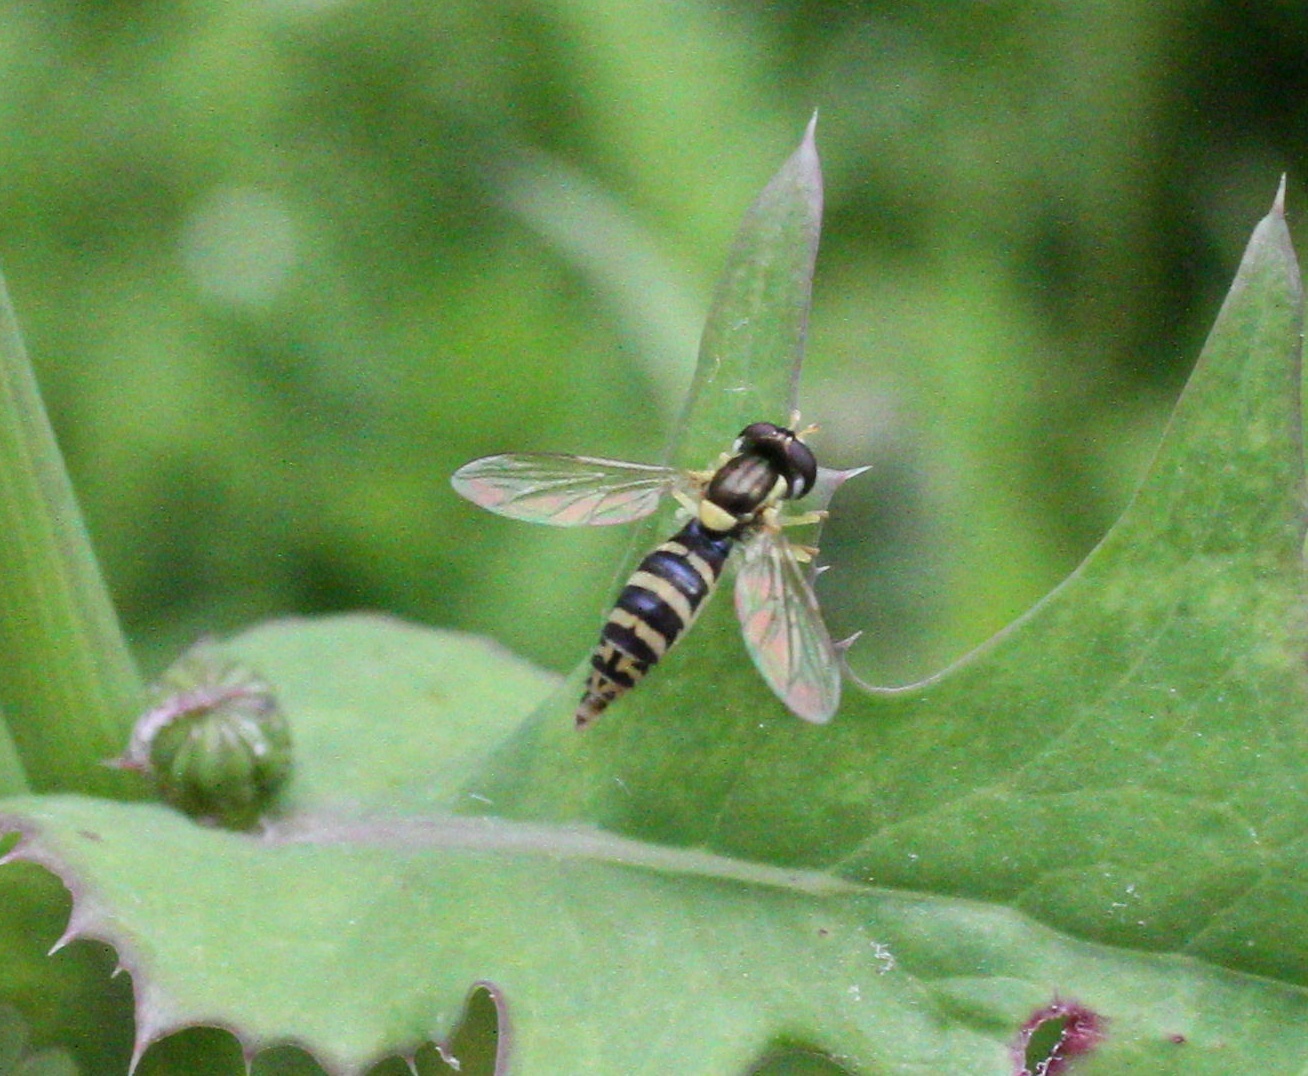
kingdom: Animalia
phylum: Arthropoda
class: Insecta
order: Diptera
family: Syrphidae
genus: Sphaerophoria
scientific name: Sphaerophoria
